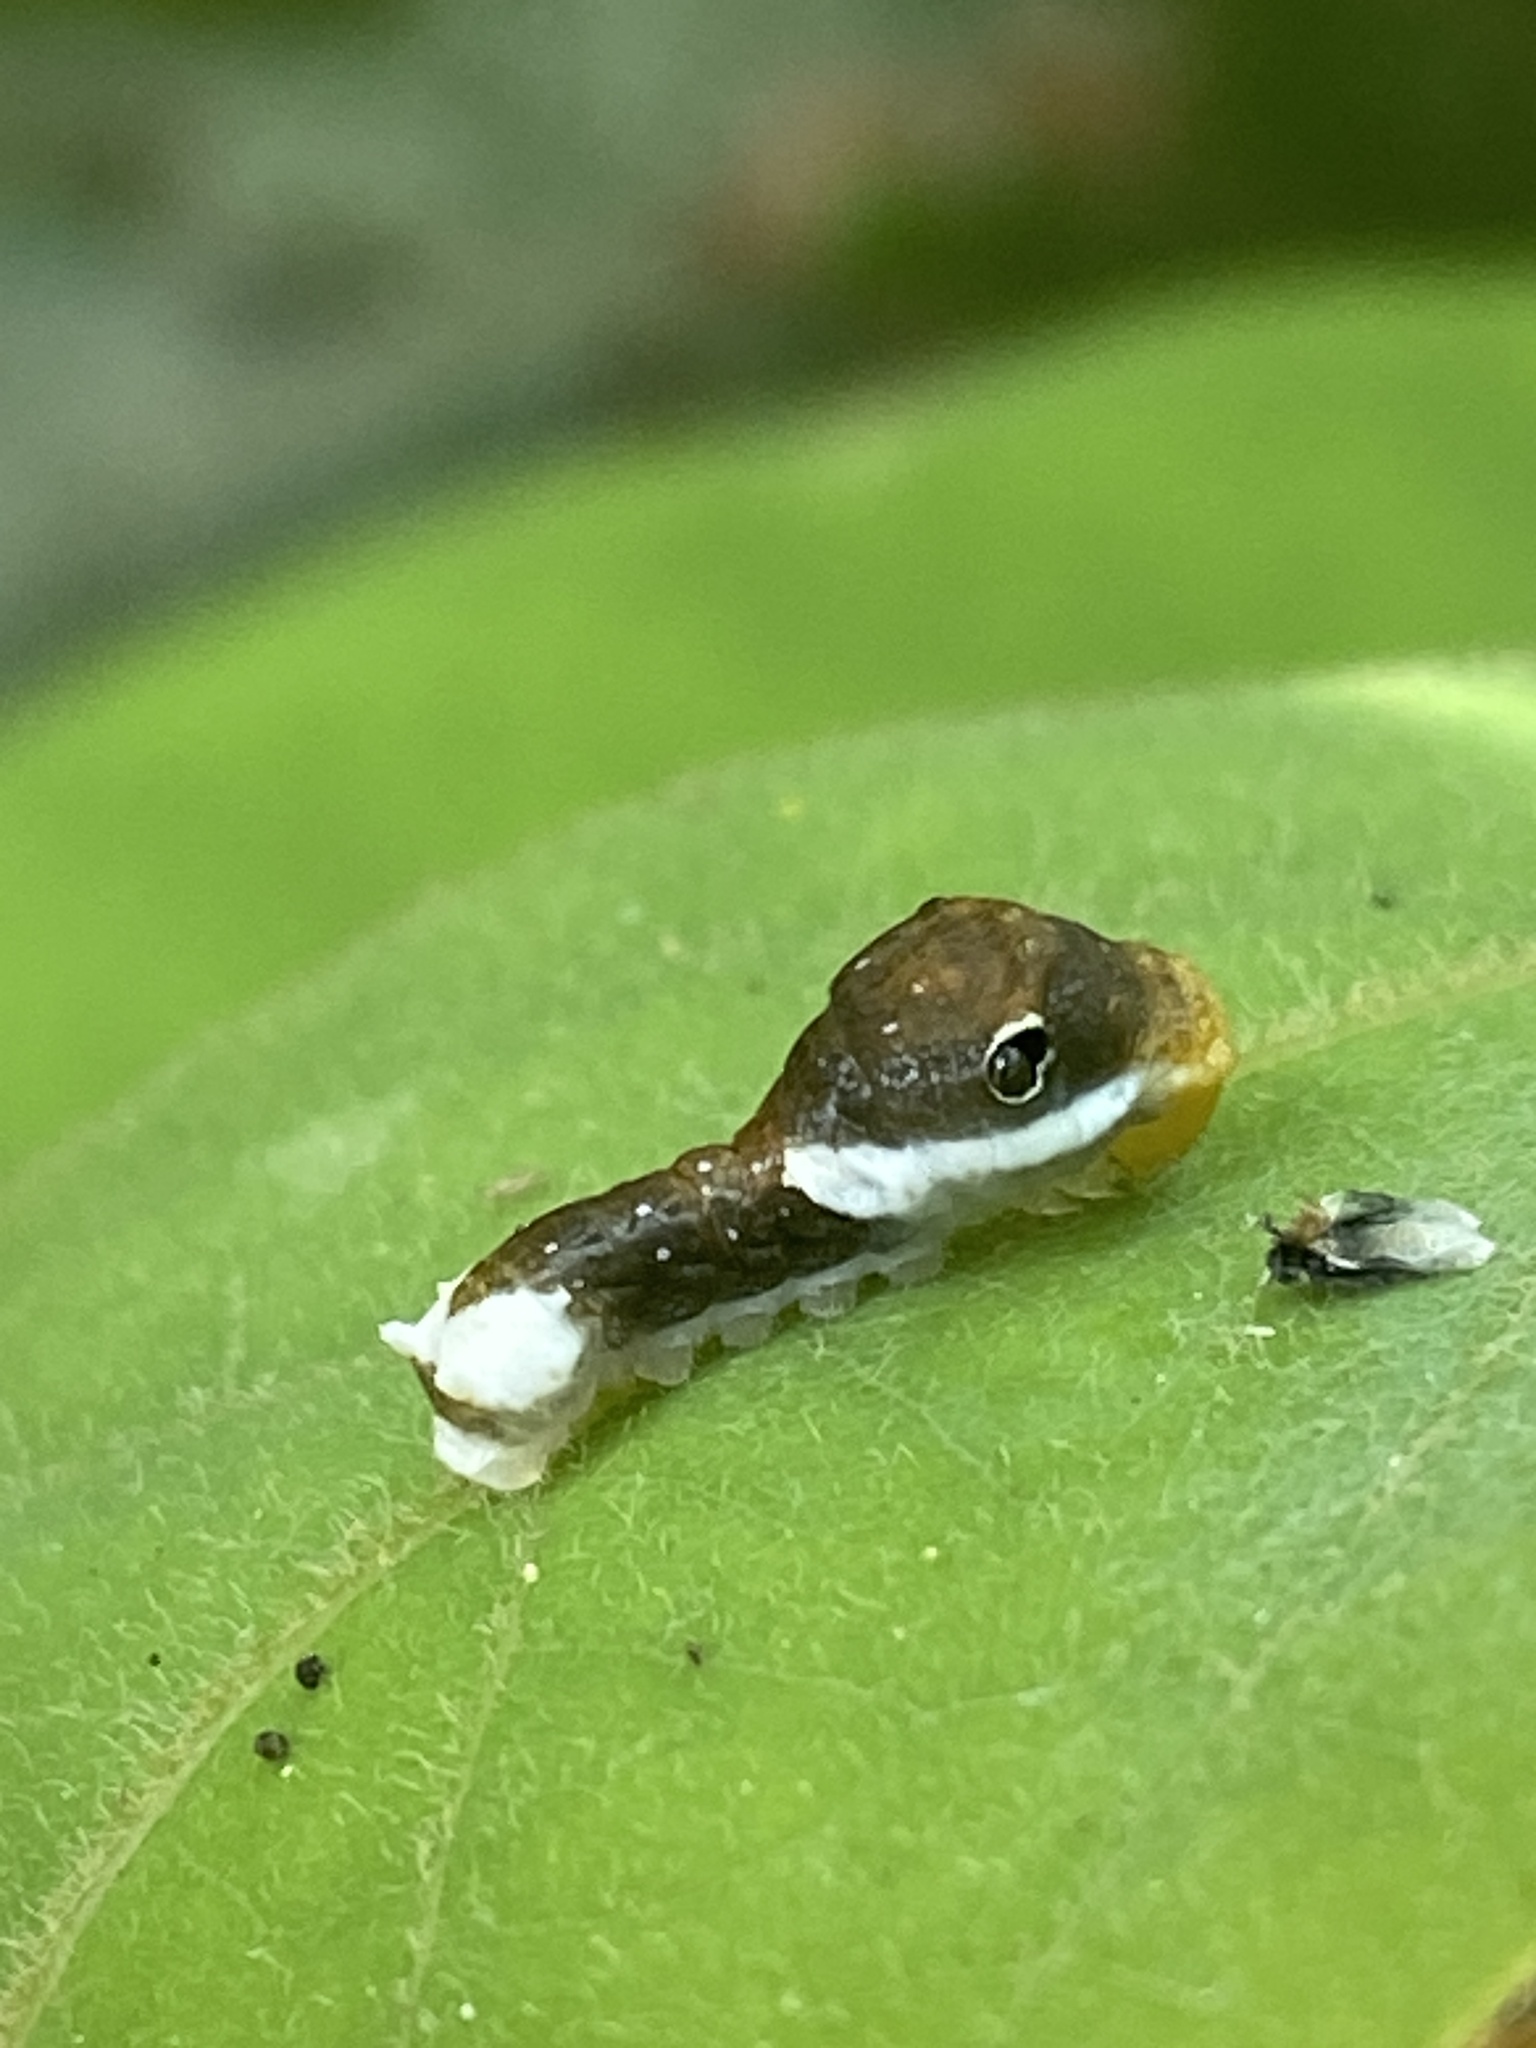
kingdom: Animalia
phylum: Arthropoda
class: Insecta
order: Lepidoptera
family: Papilionidae
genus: Papilio
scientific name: Papilio palamedes
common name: Palamedes swallowtail
